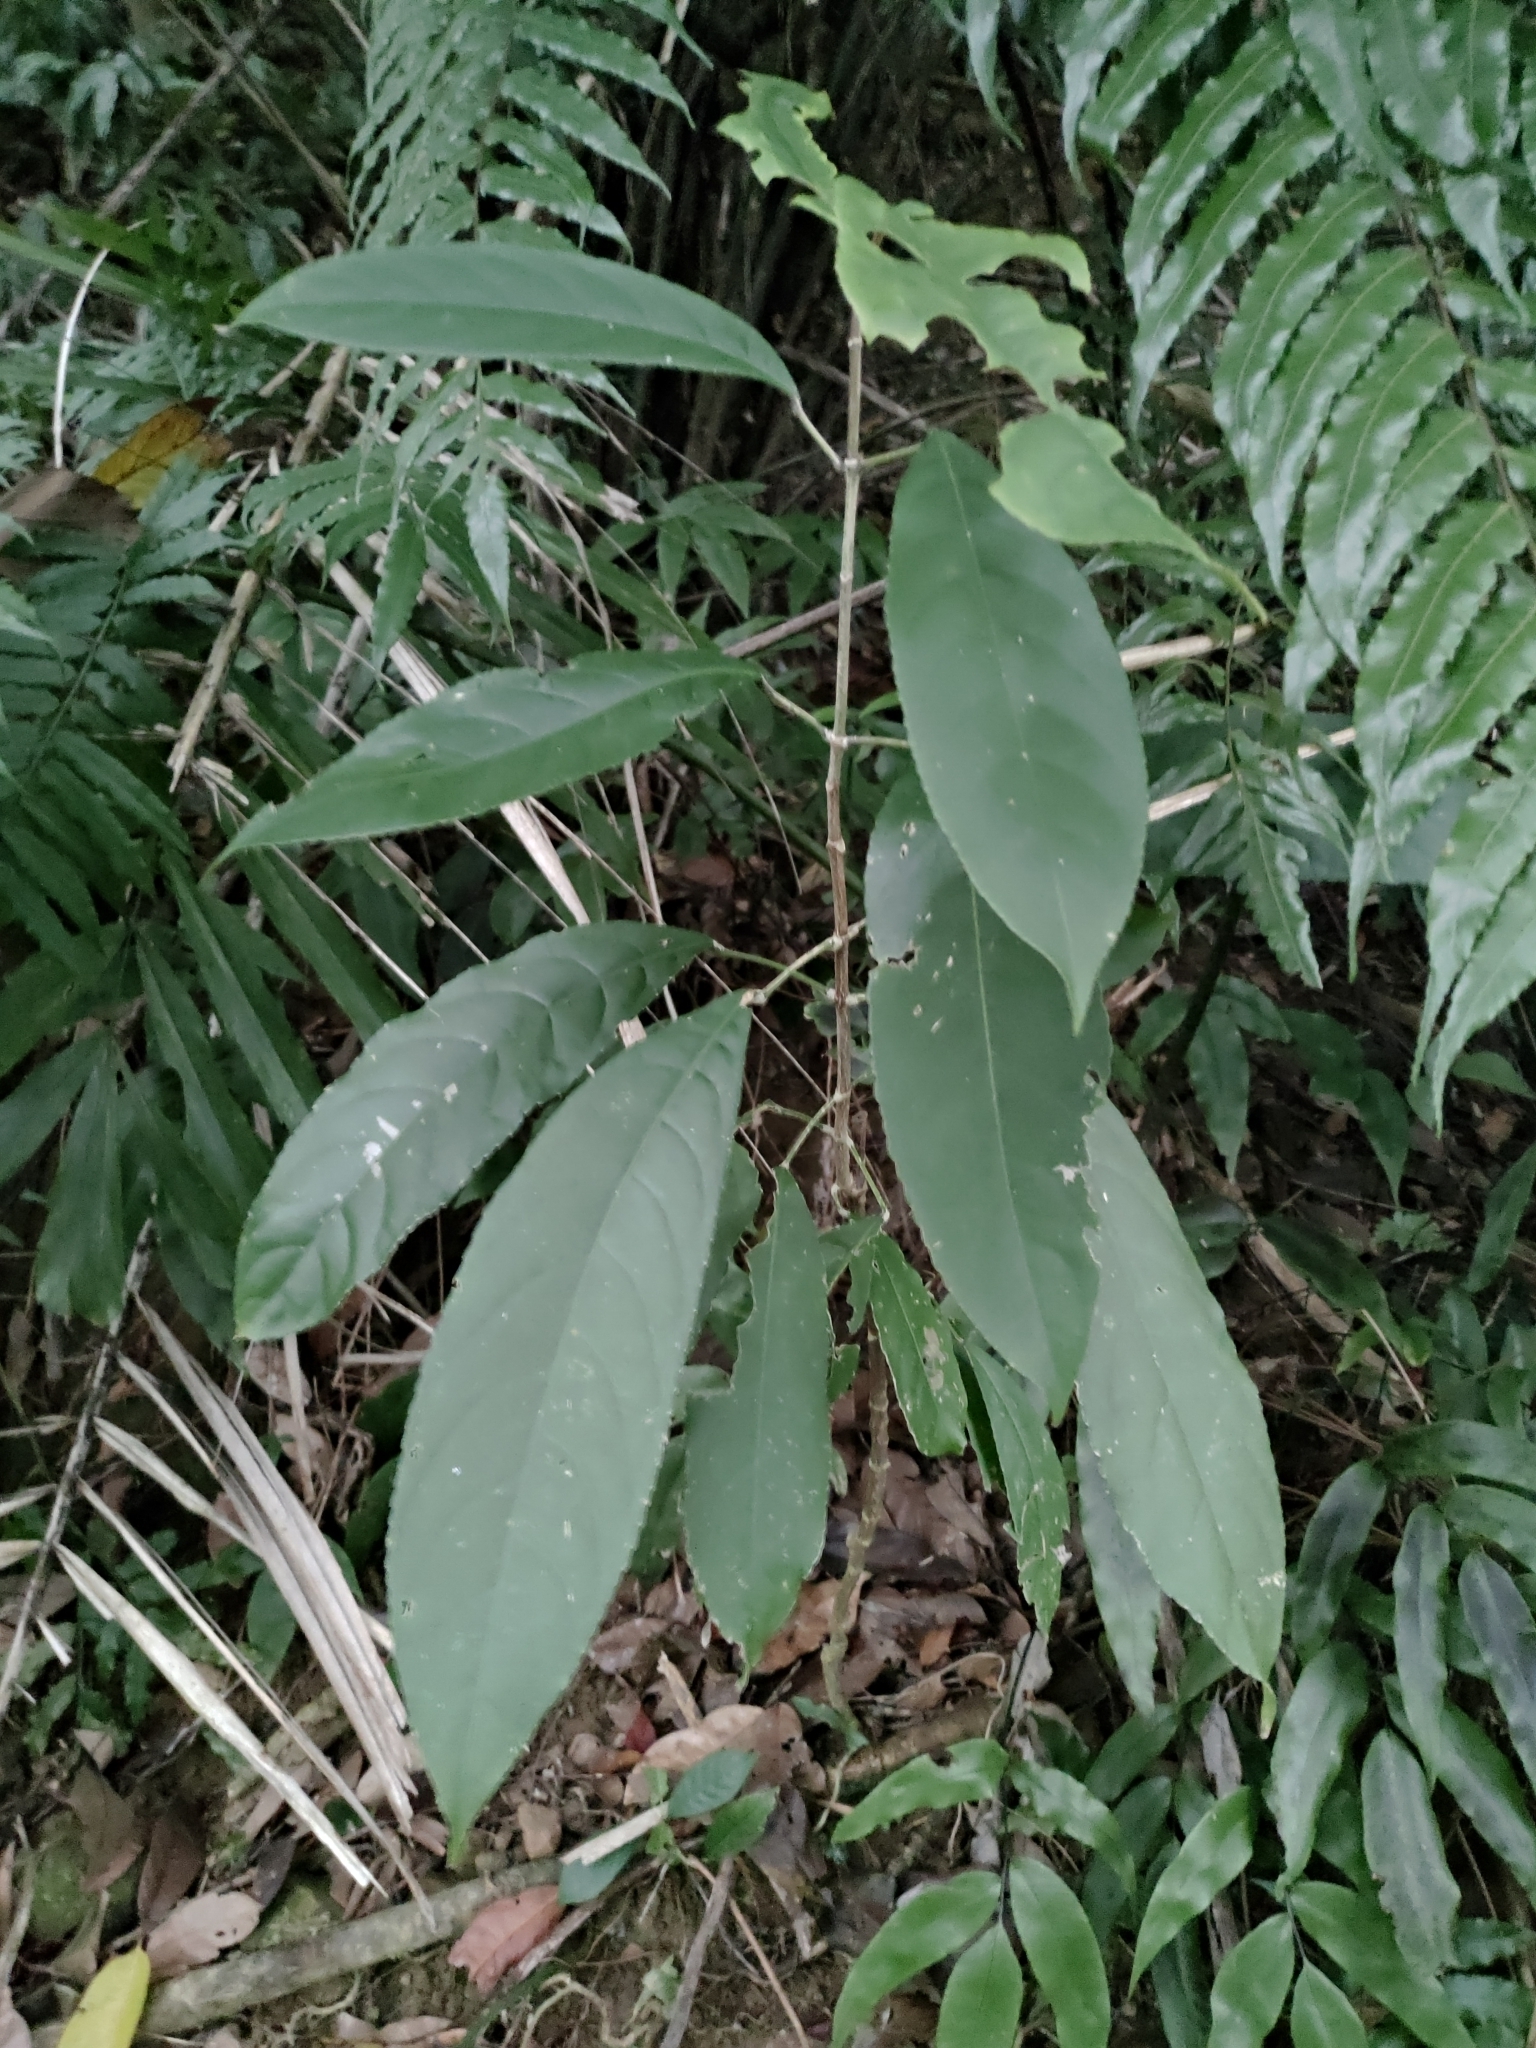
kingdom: Plantae
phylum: Tracheophyta
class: Magnoliopsida
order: Crossosomatales
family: Staphyleaceae
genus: Turpinia
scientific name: Turpinia formosana
